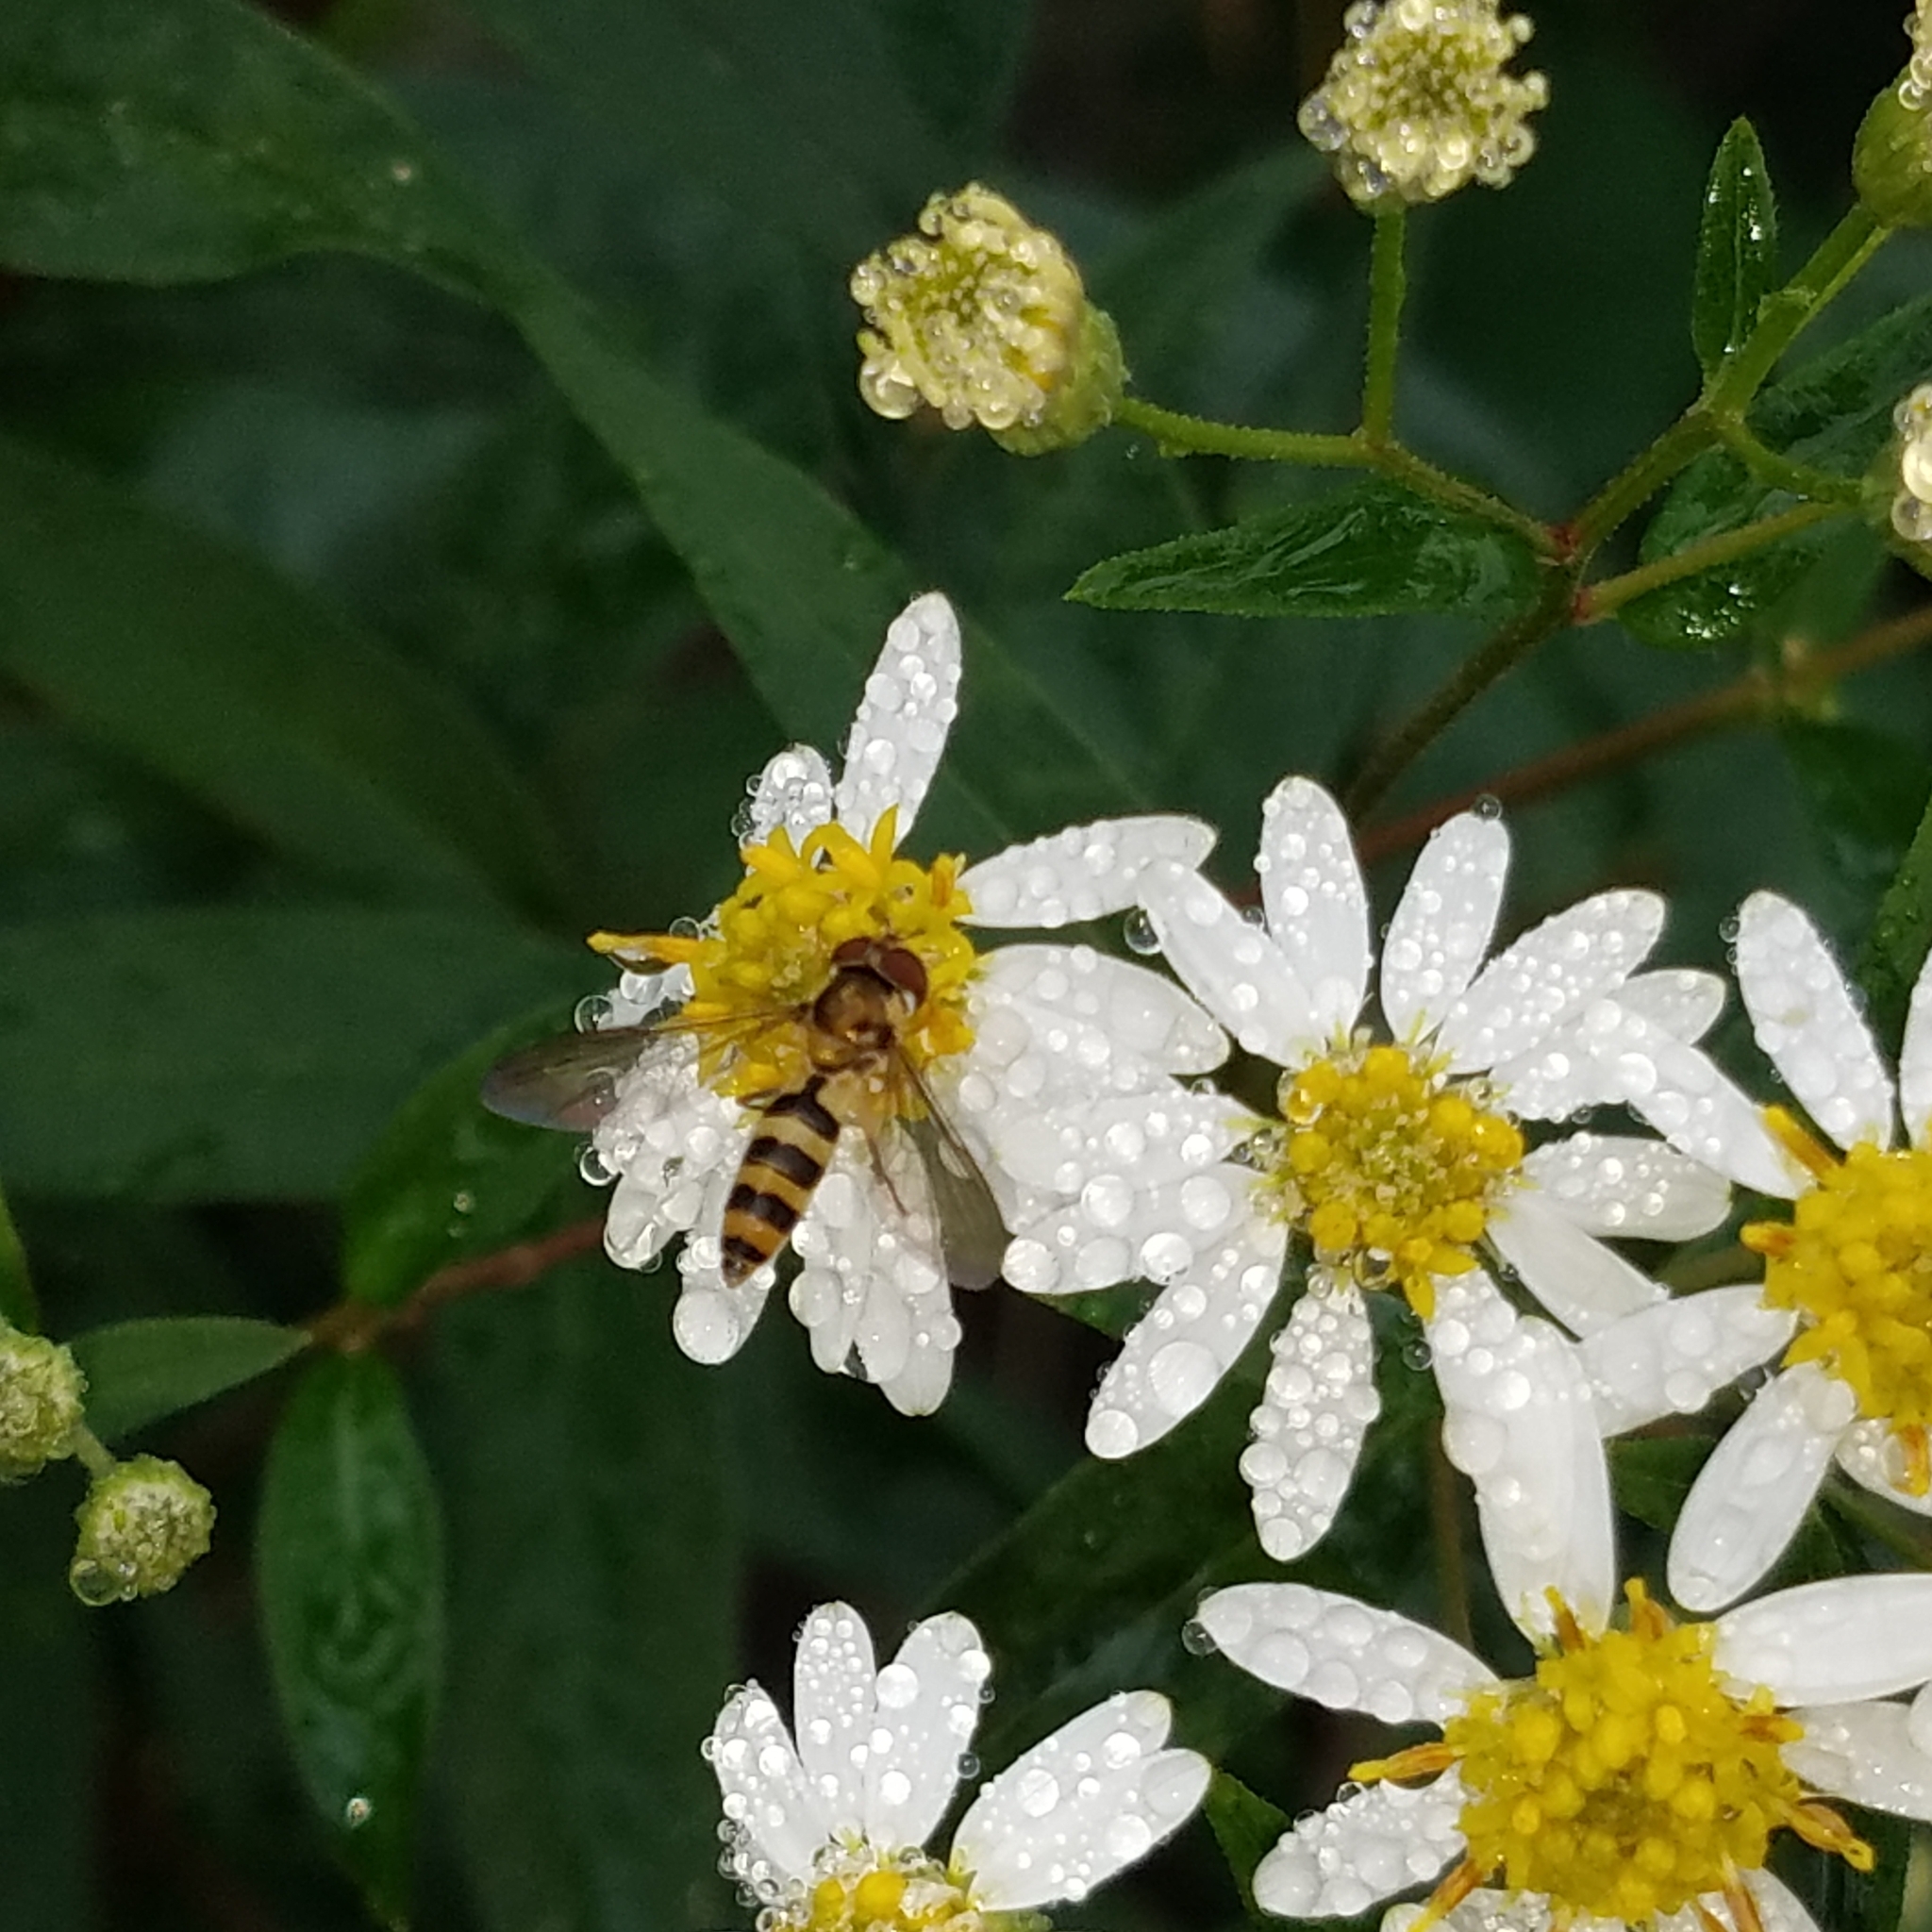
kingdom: Animalia
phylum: Arthropoda
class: Insecta
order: Diptera
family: Syrphidae
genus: Meliscaeva
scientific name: Meliscaeva cinctella
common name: American thintail fly
